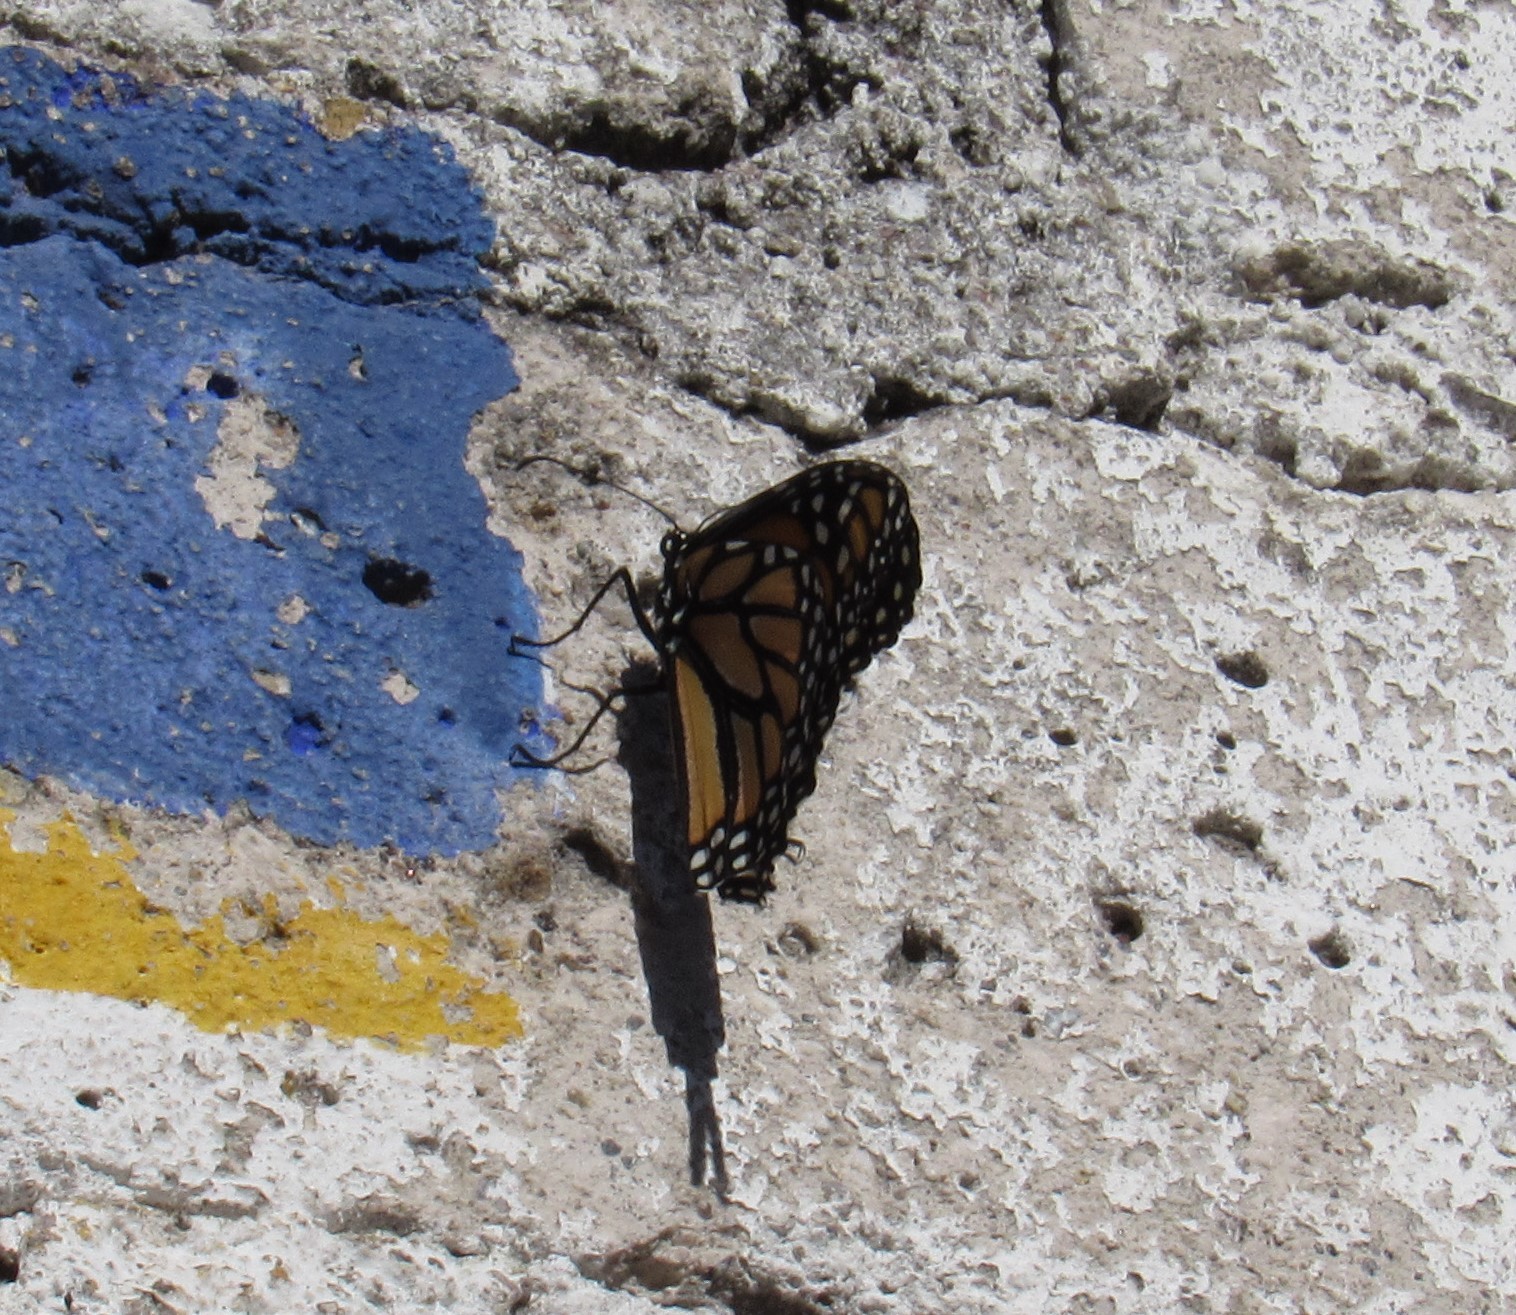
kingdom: Animalia
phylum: Arthropoda
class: Insecta
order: Lepidoptera
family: Nymphalidae
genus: Danaus
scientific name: Danaus plexippus
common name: Monarch
